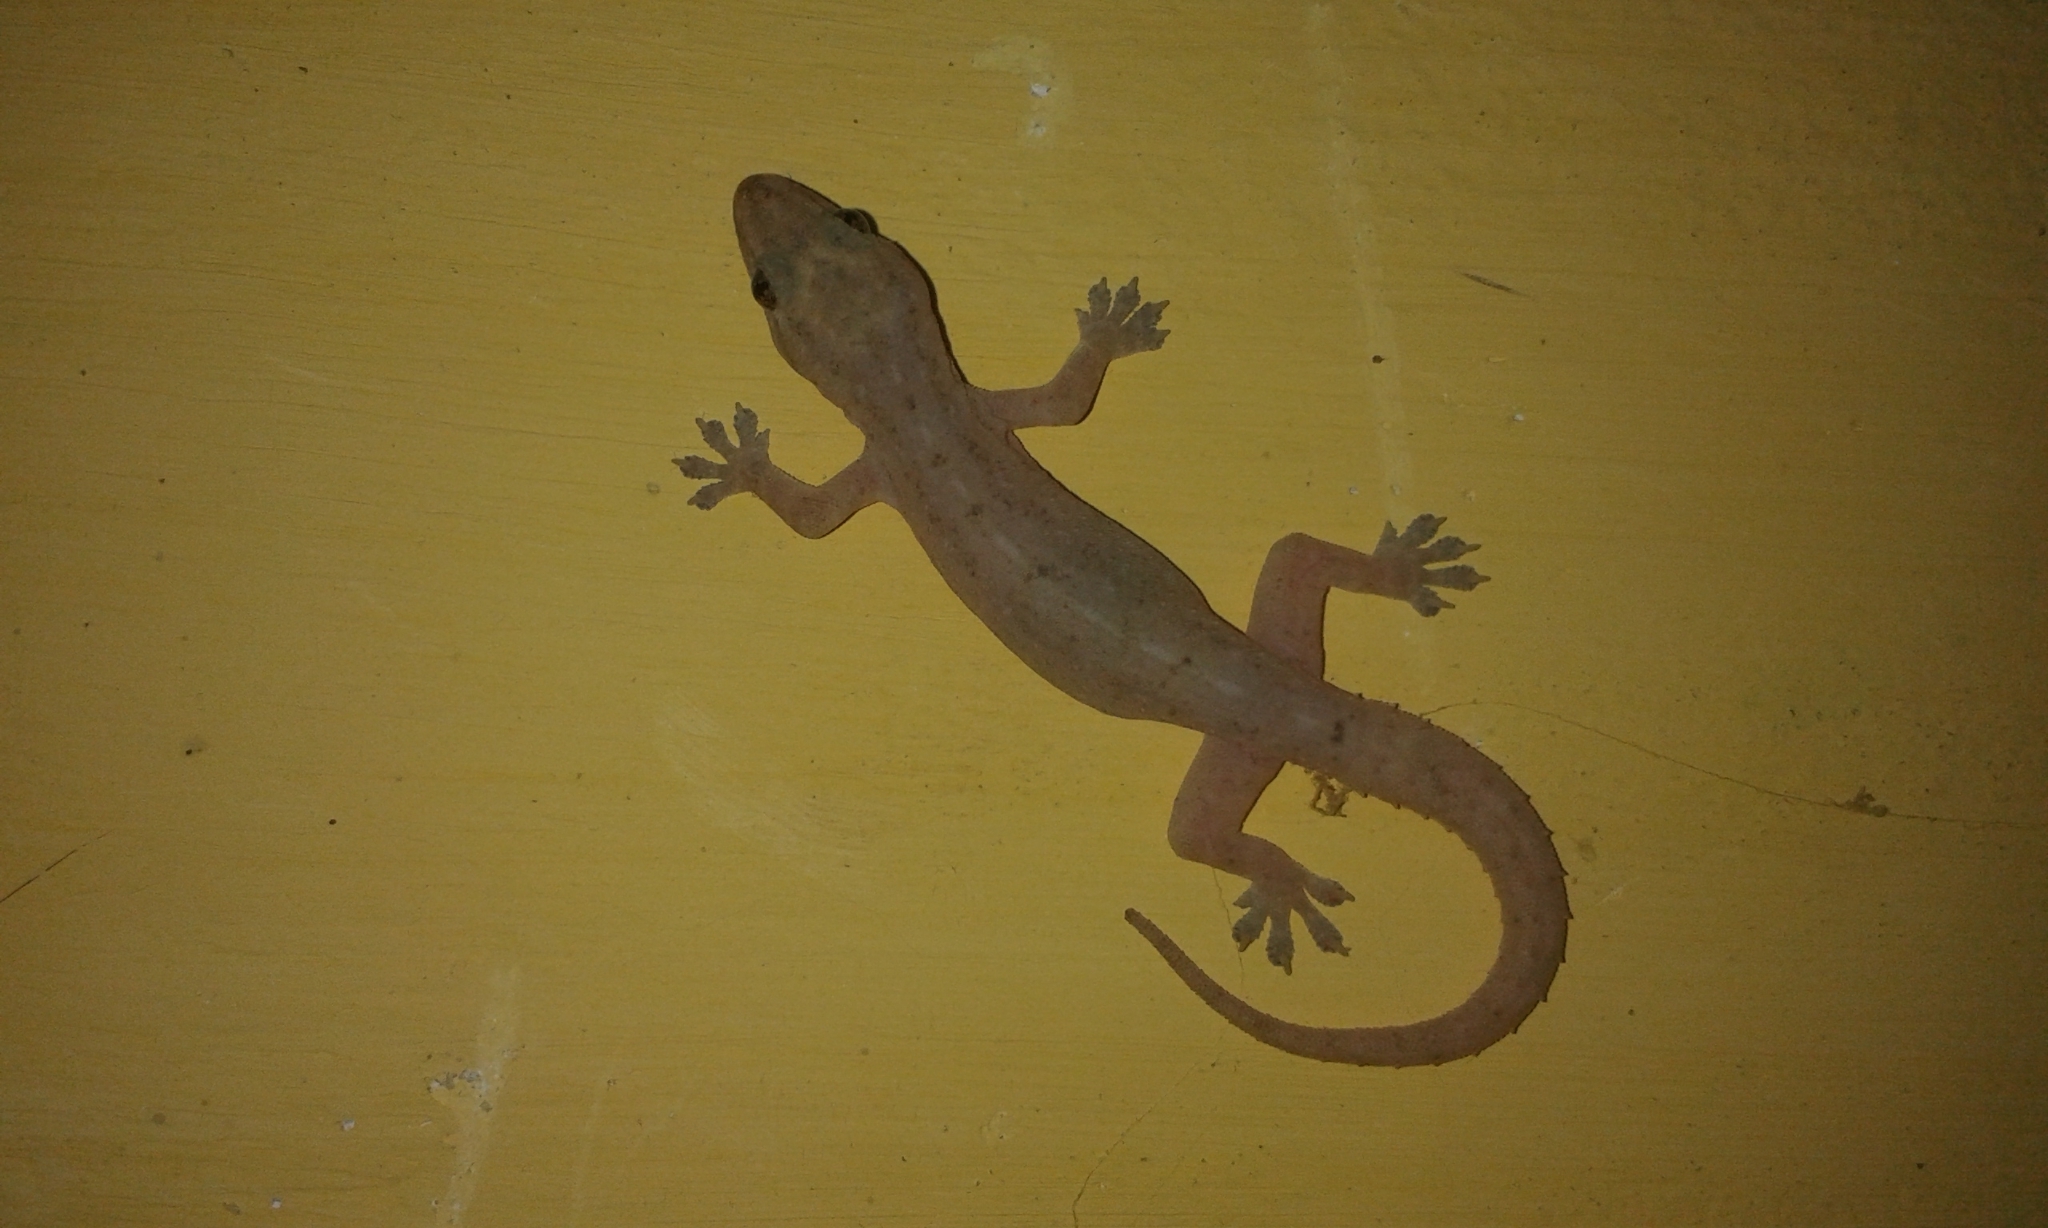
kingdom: Animalia
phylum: Chordata
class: Squamata
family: Gekkonidae
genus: Hemidactylus
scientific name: Hemidactylus frenatus
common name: Common house gecko
